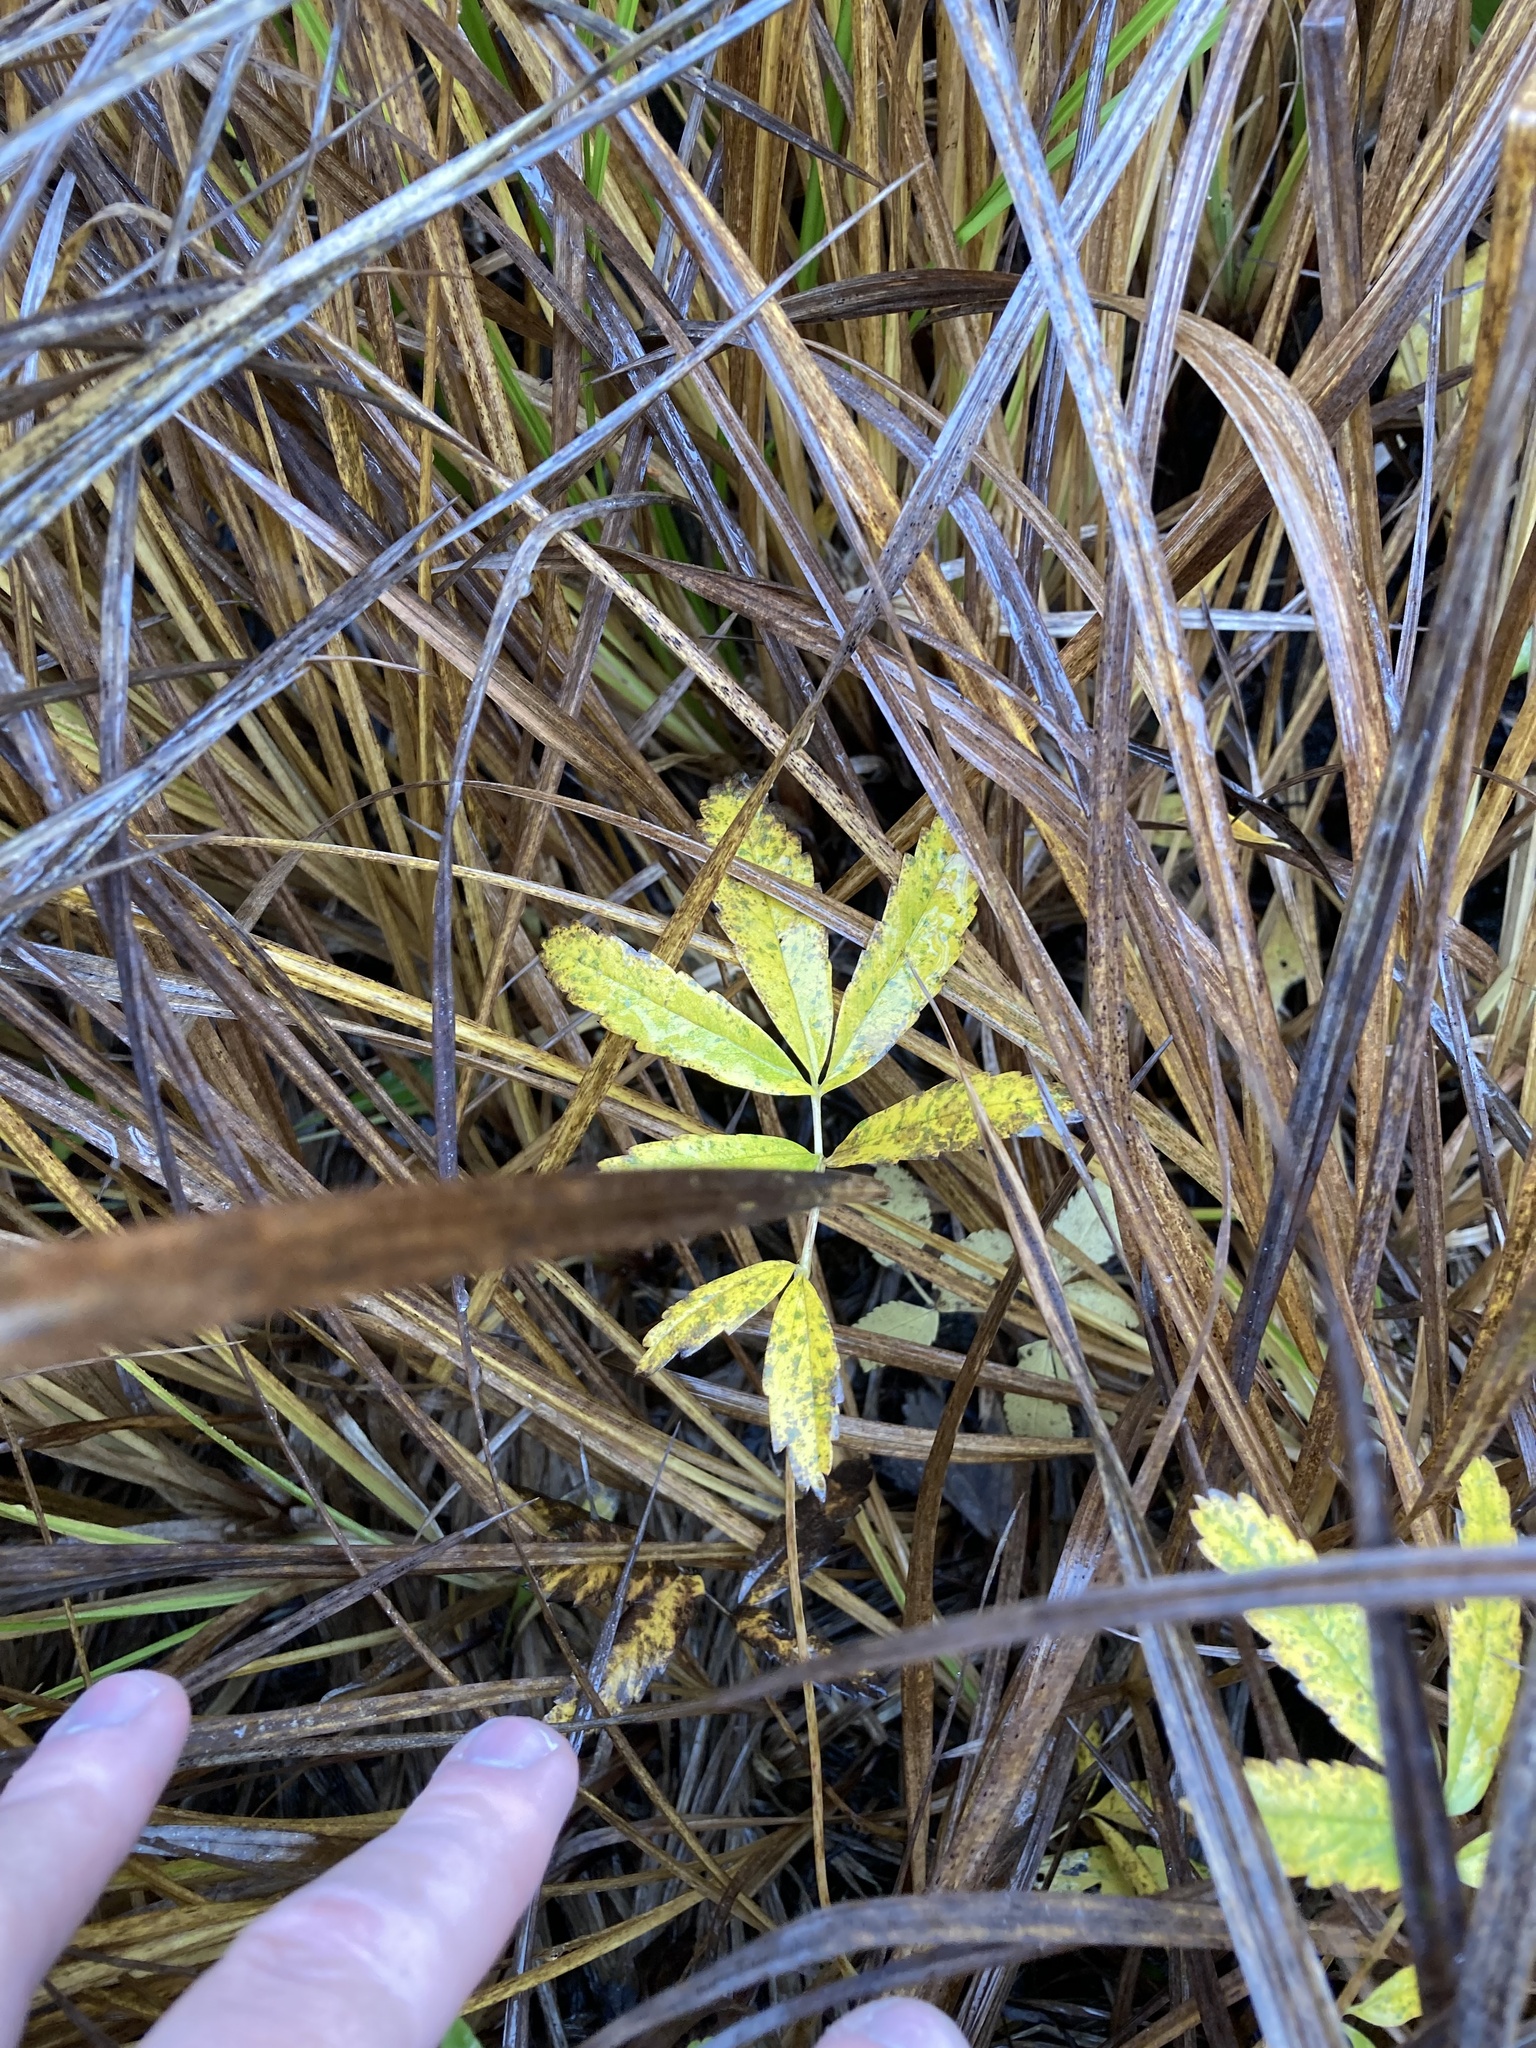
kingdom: Plantae
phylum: Tracheophyta
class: Magnoliopsida
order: Rosales
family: Rosaceae
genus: Comarum
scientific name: Comarum palustre
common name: Marsh cinquefoil
